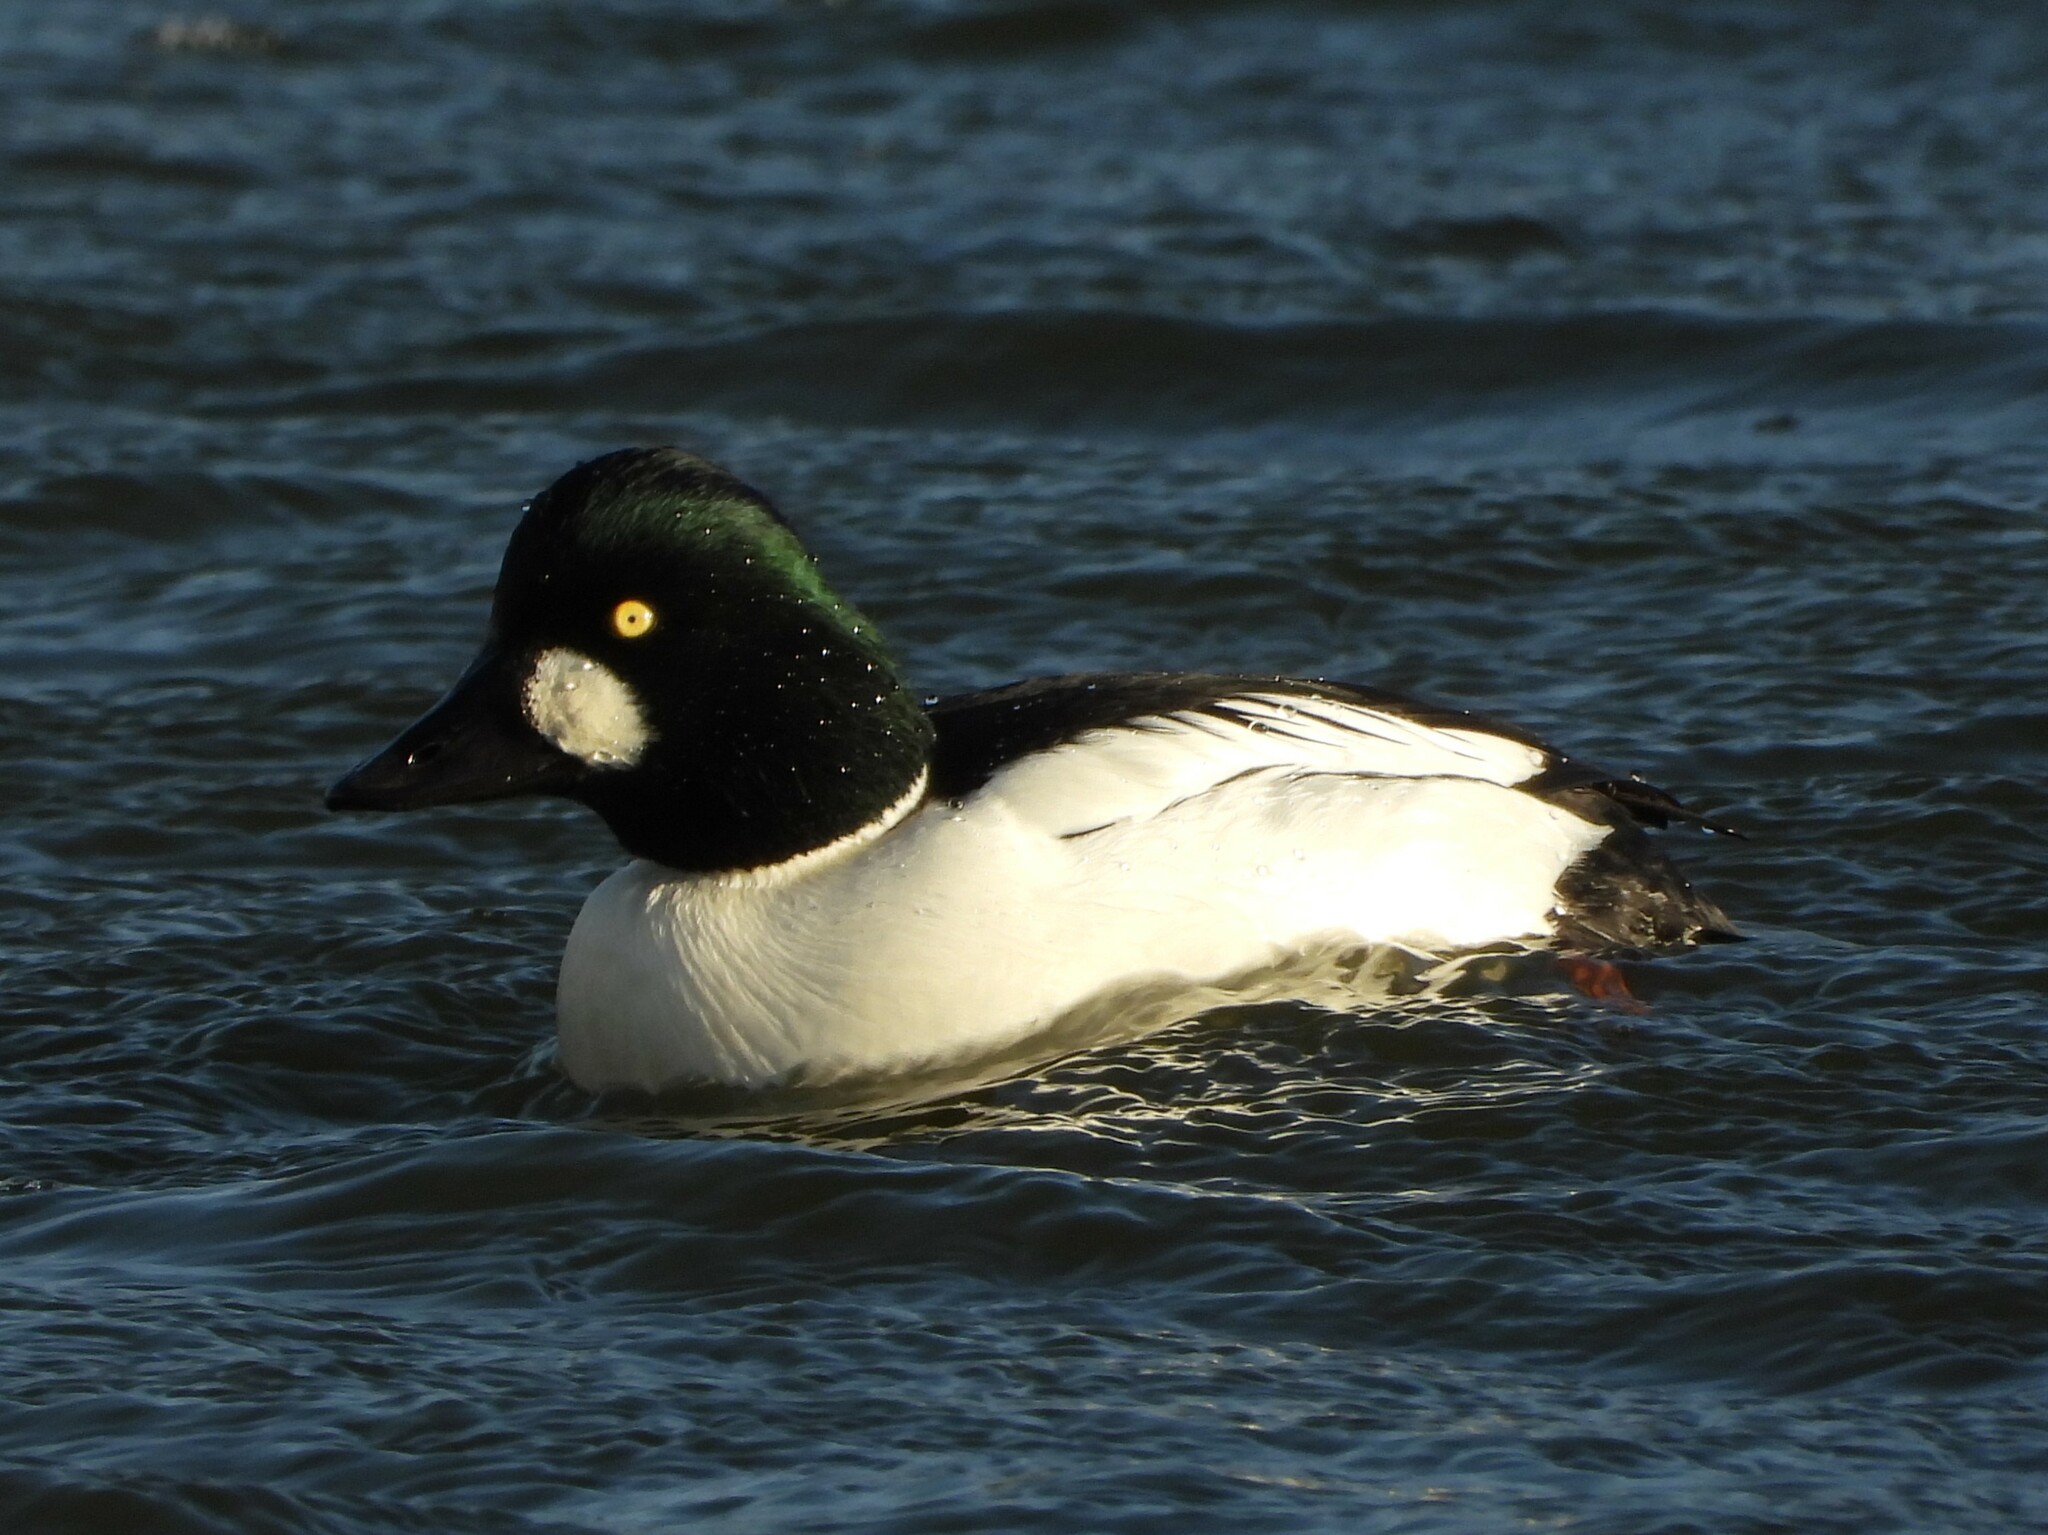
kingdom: Animalia
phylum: Chordata
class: Aves
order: Anseriformes
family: Anatidae
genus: Bucephala
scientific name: Bucephala clangula
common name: Common goldeneye
